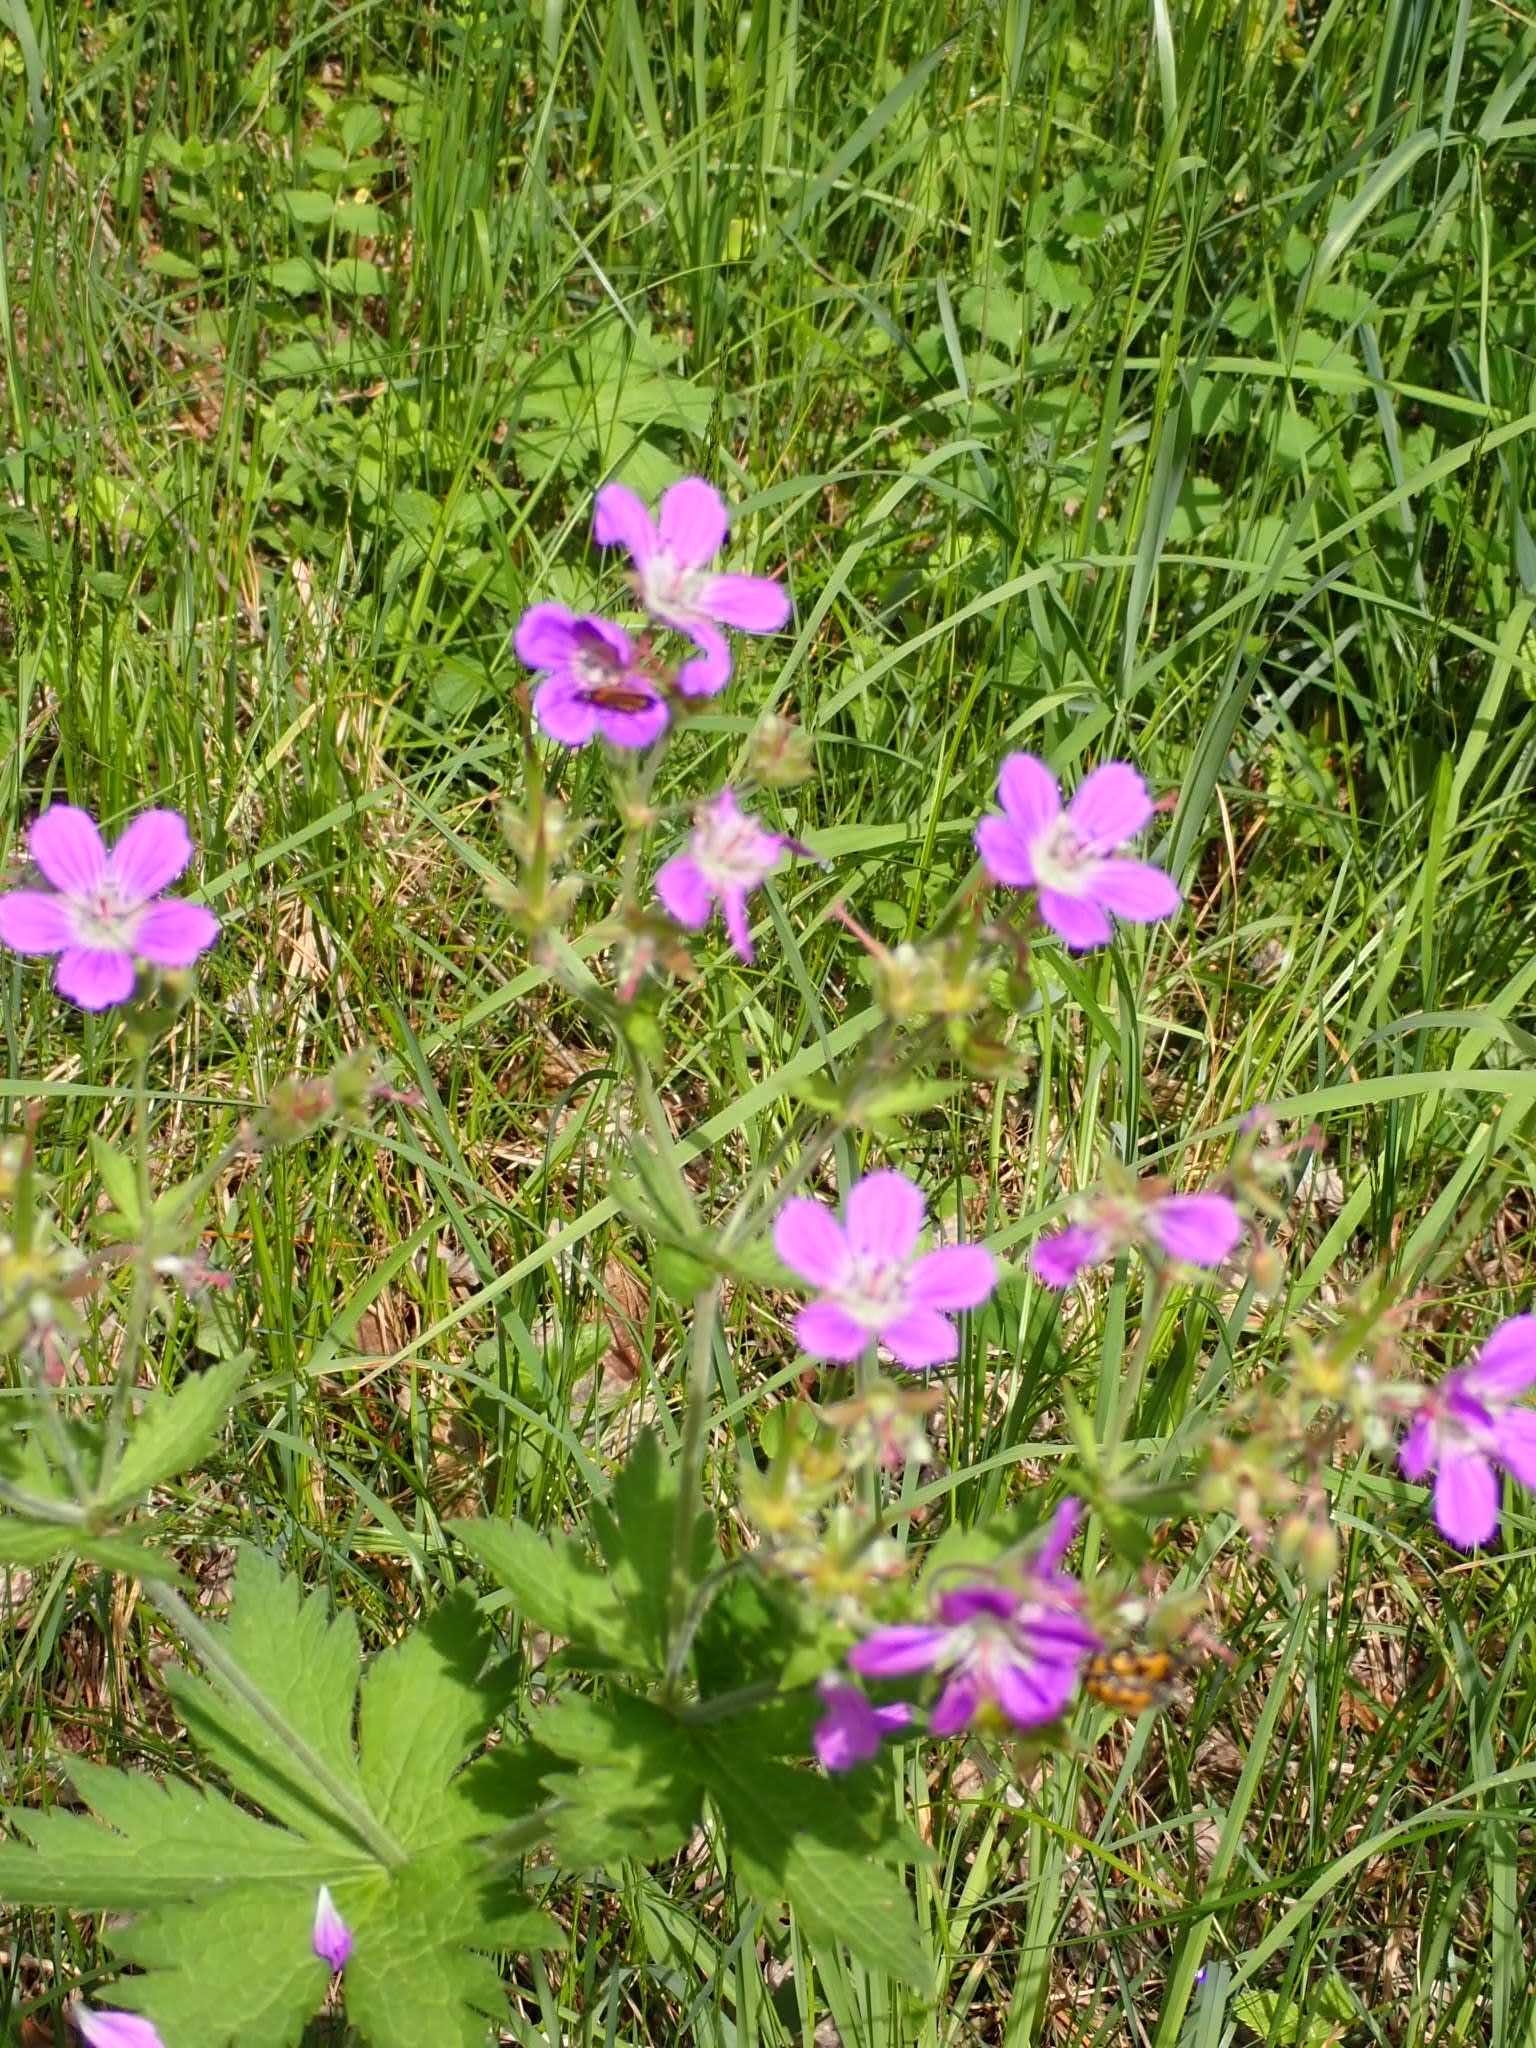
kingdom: Plantae
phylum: Tracheophyta
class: Magnoliopsida
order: Geraniales
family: Geraniaceae
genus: Geranium
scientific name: Geranium sylvaticum
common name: Wood crane's-bill
